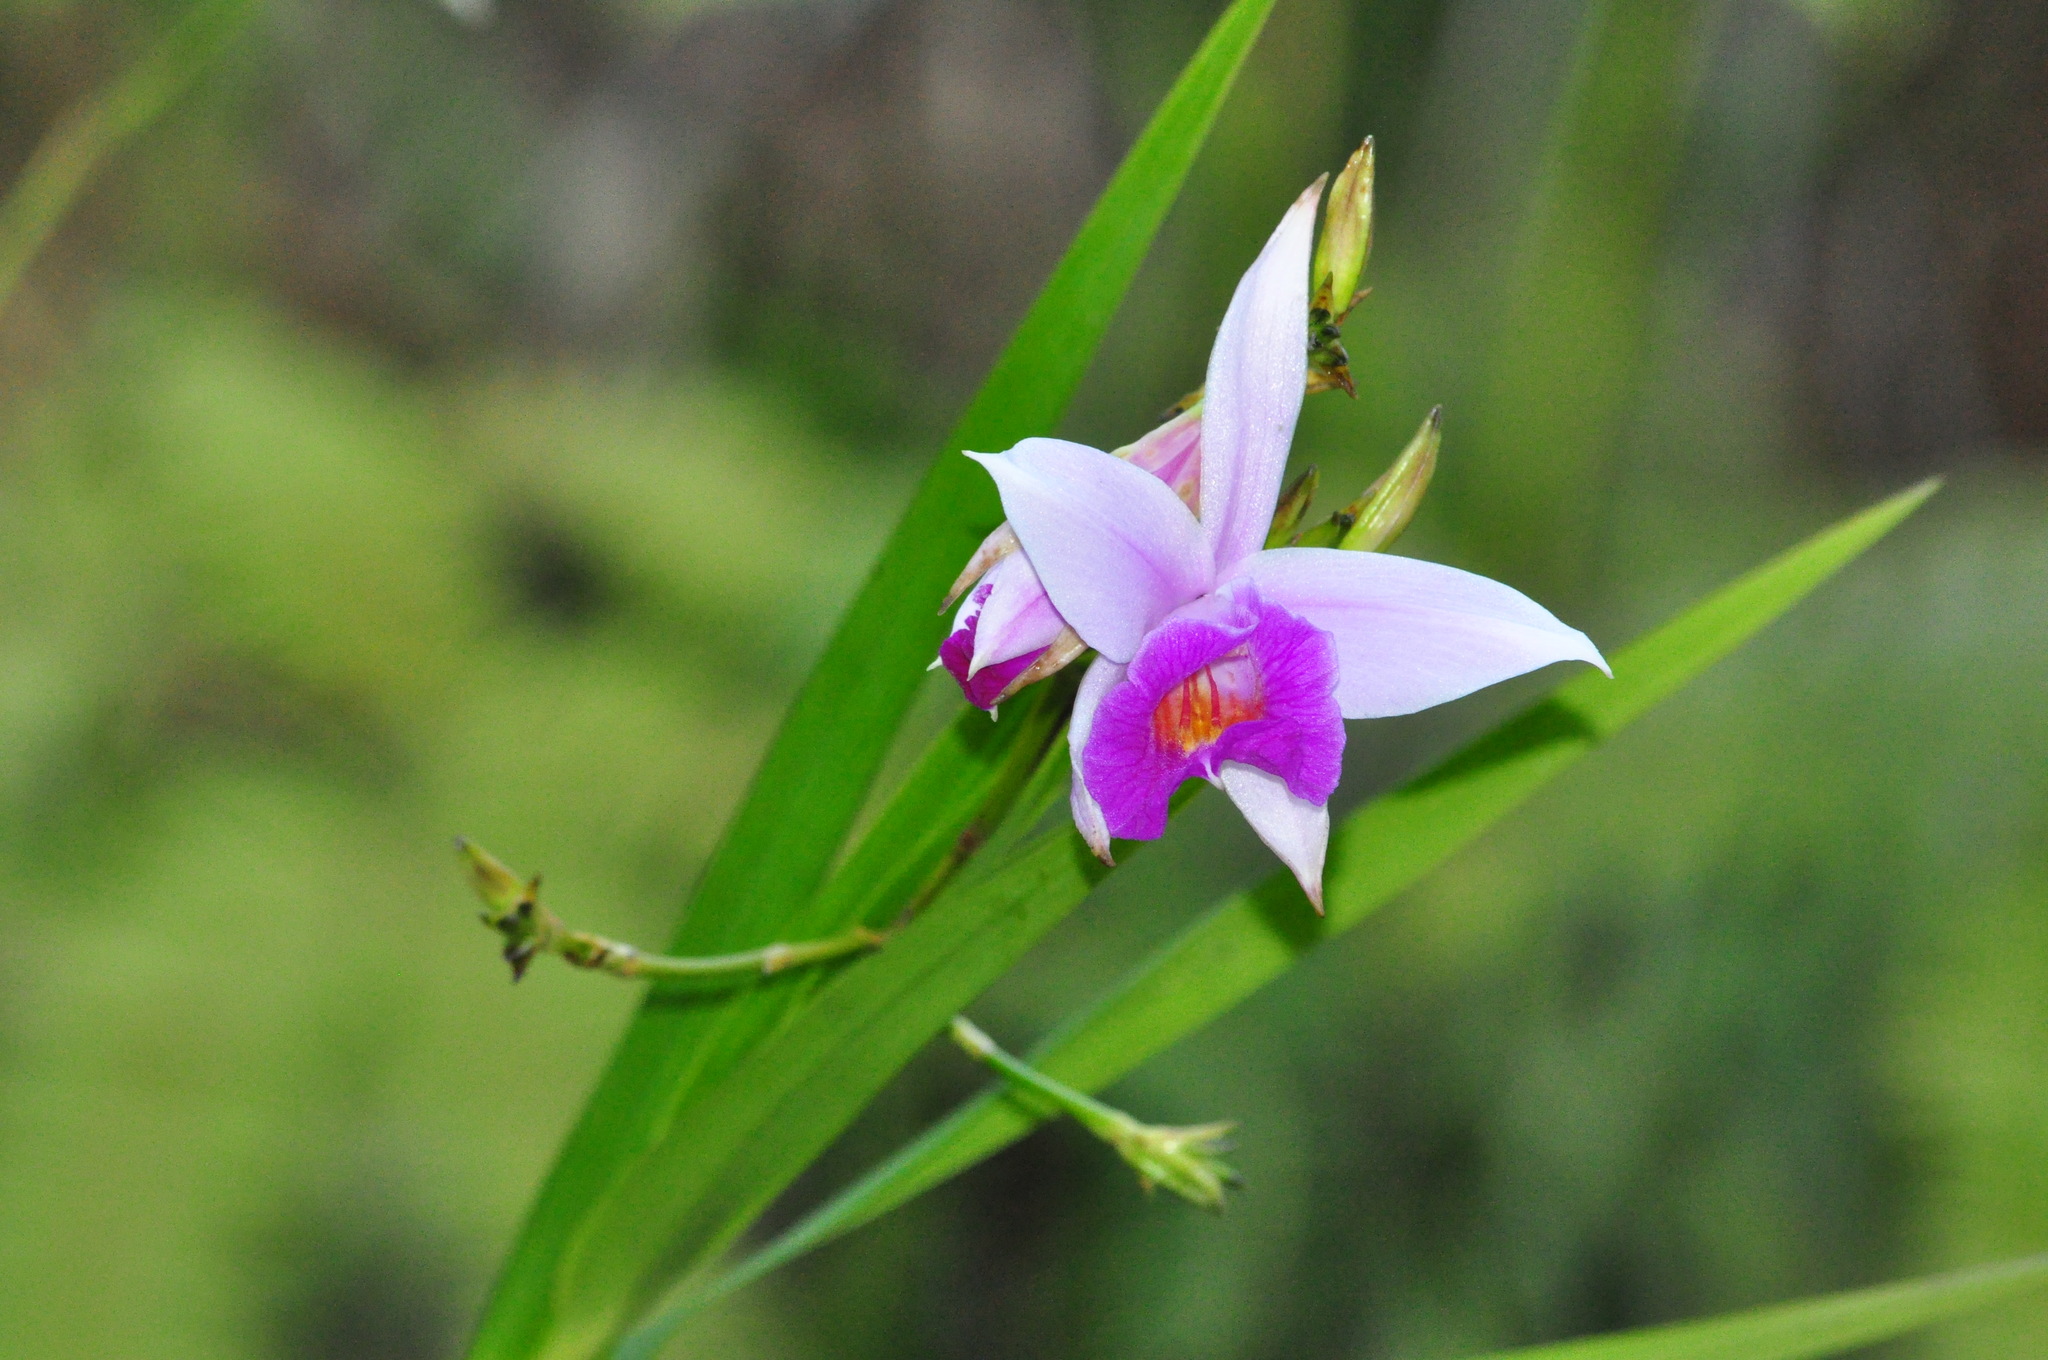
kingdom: Plantae
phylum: Tracheophyta
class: Liliopsida
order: Asparagales
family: Orchidaceae
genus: Arundina
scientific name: Arundina graminifolia
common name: Bamboo orchid
